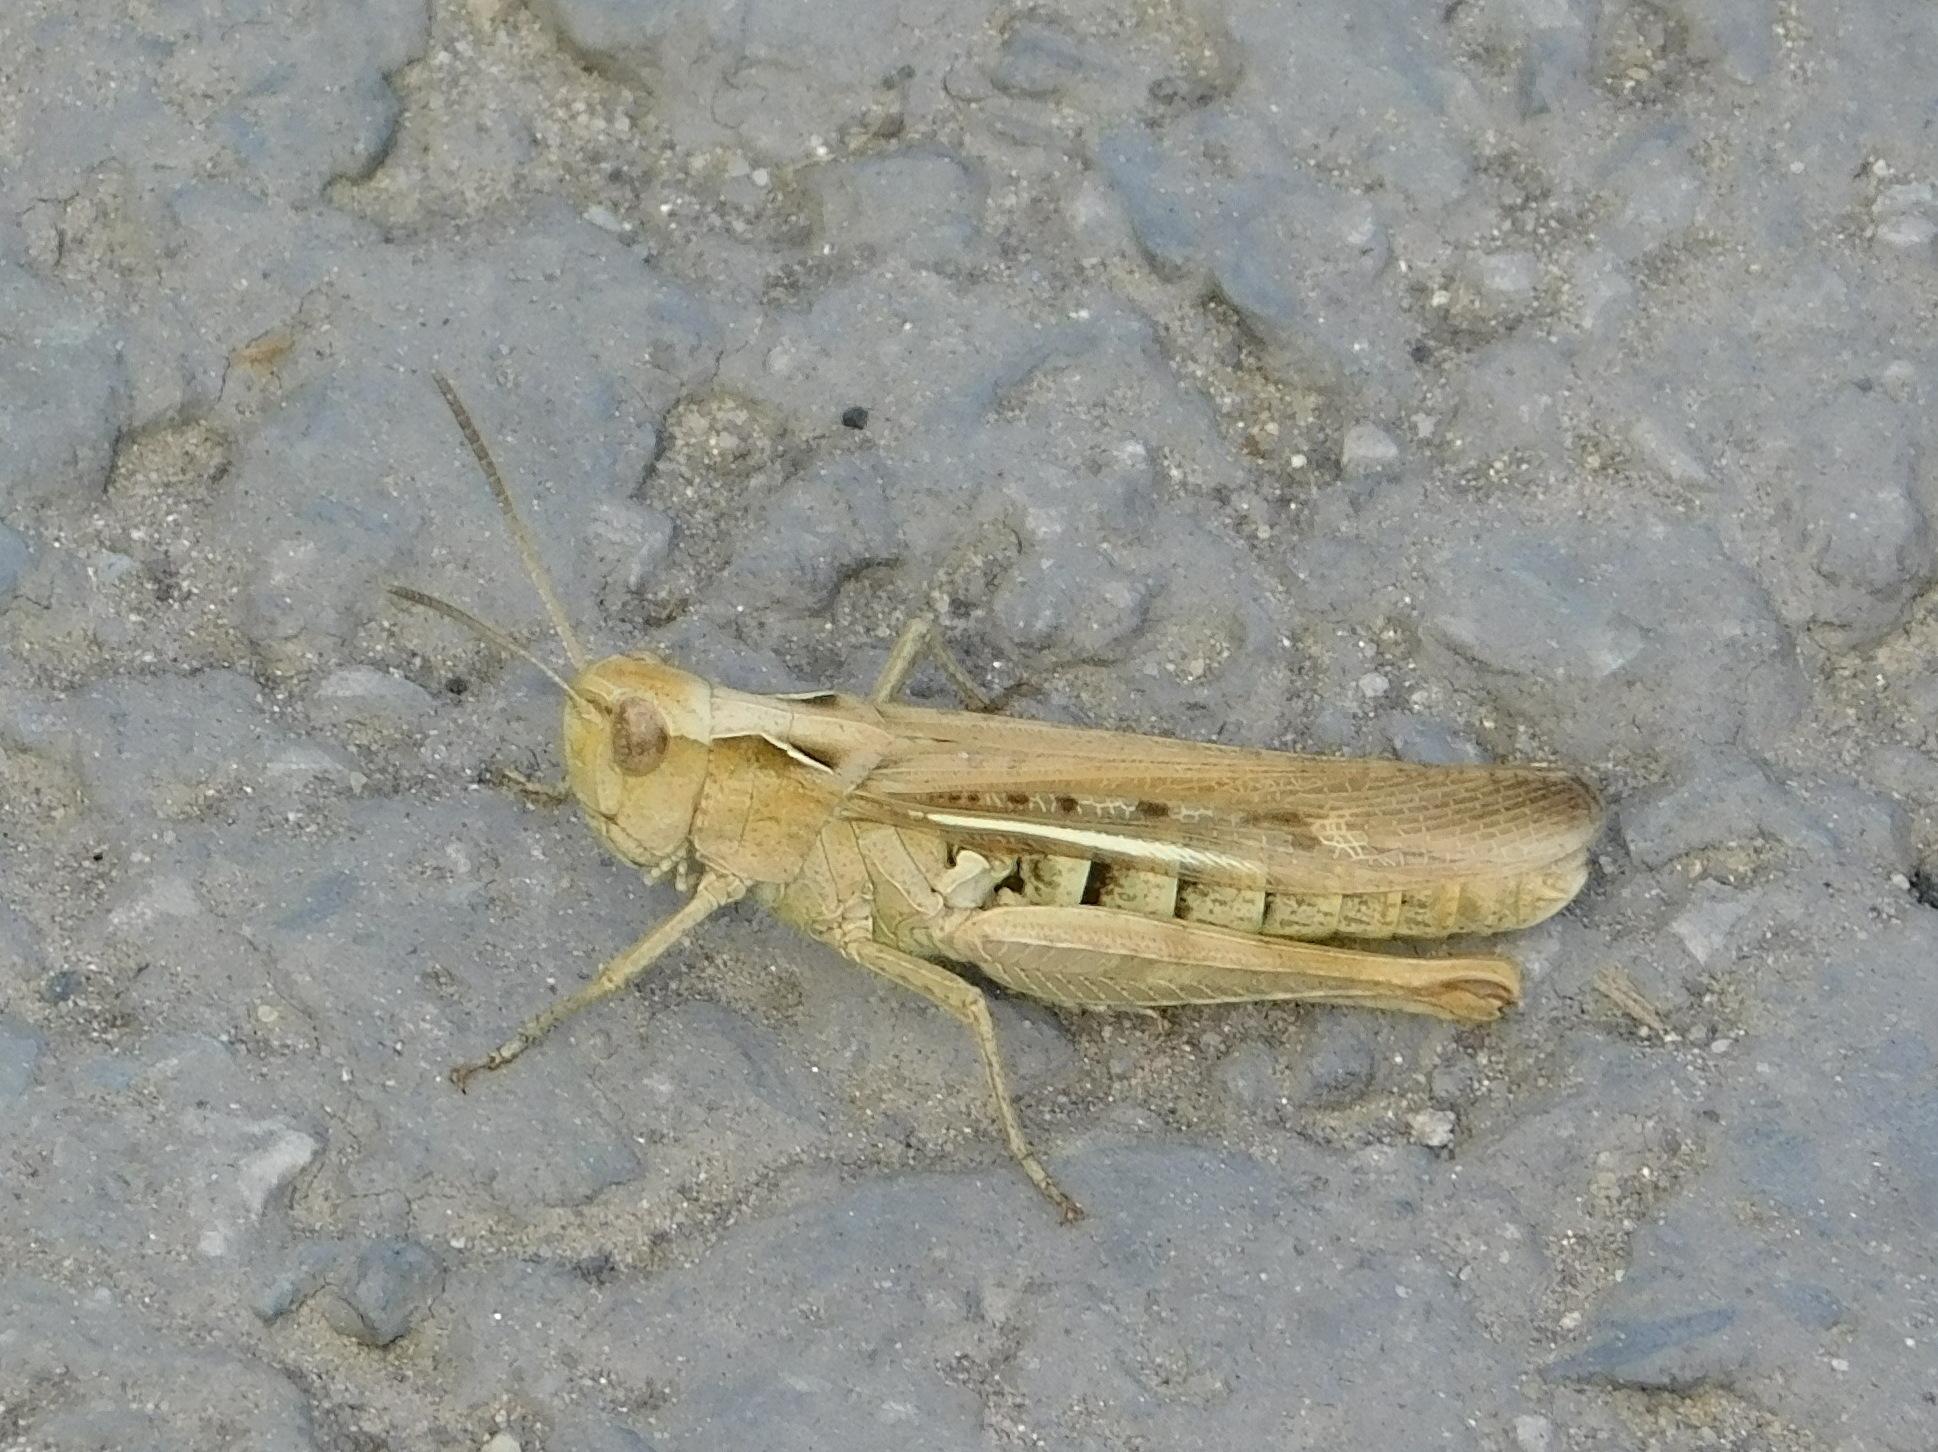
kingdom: Animalia
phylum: Arthropoda
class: Insecta
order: Orthoptera
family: Acrididae
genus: Chorthippus
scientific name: Chorthippus biguttulus
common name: Bow-winged grasshopper
